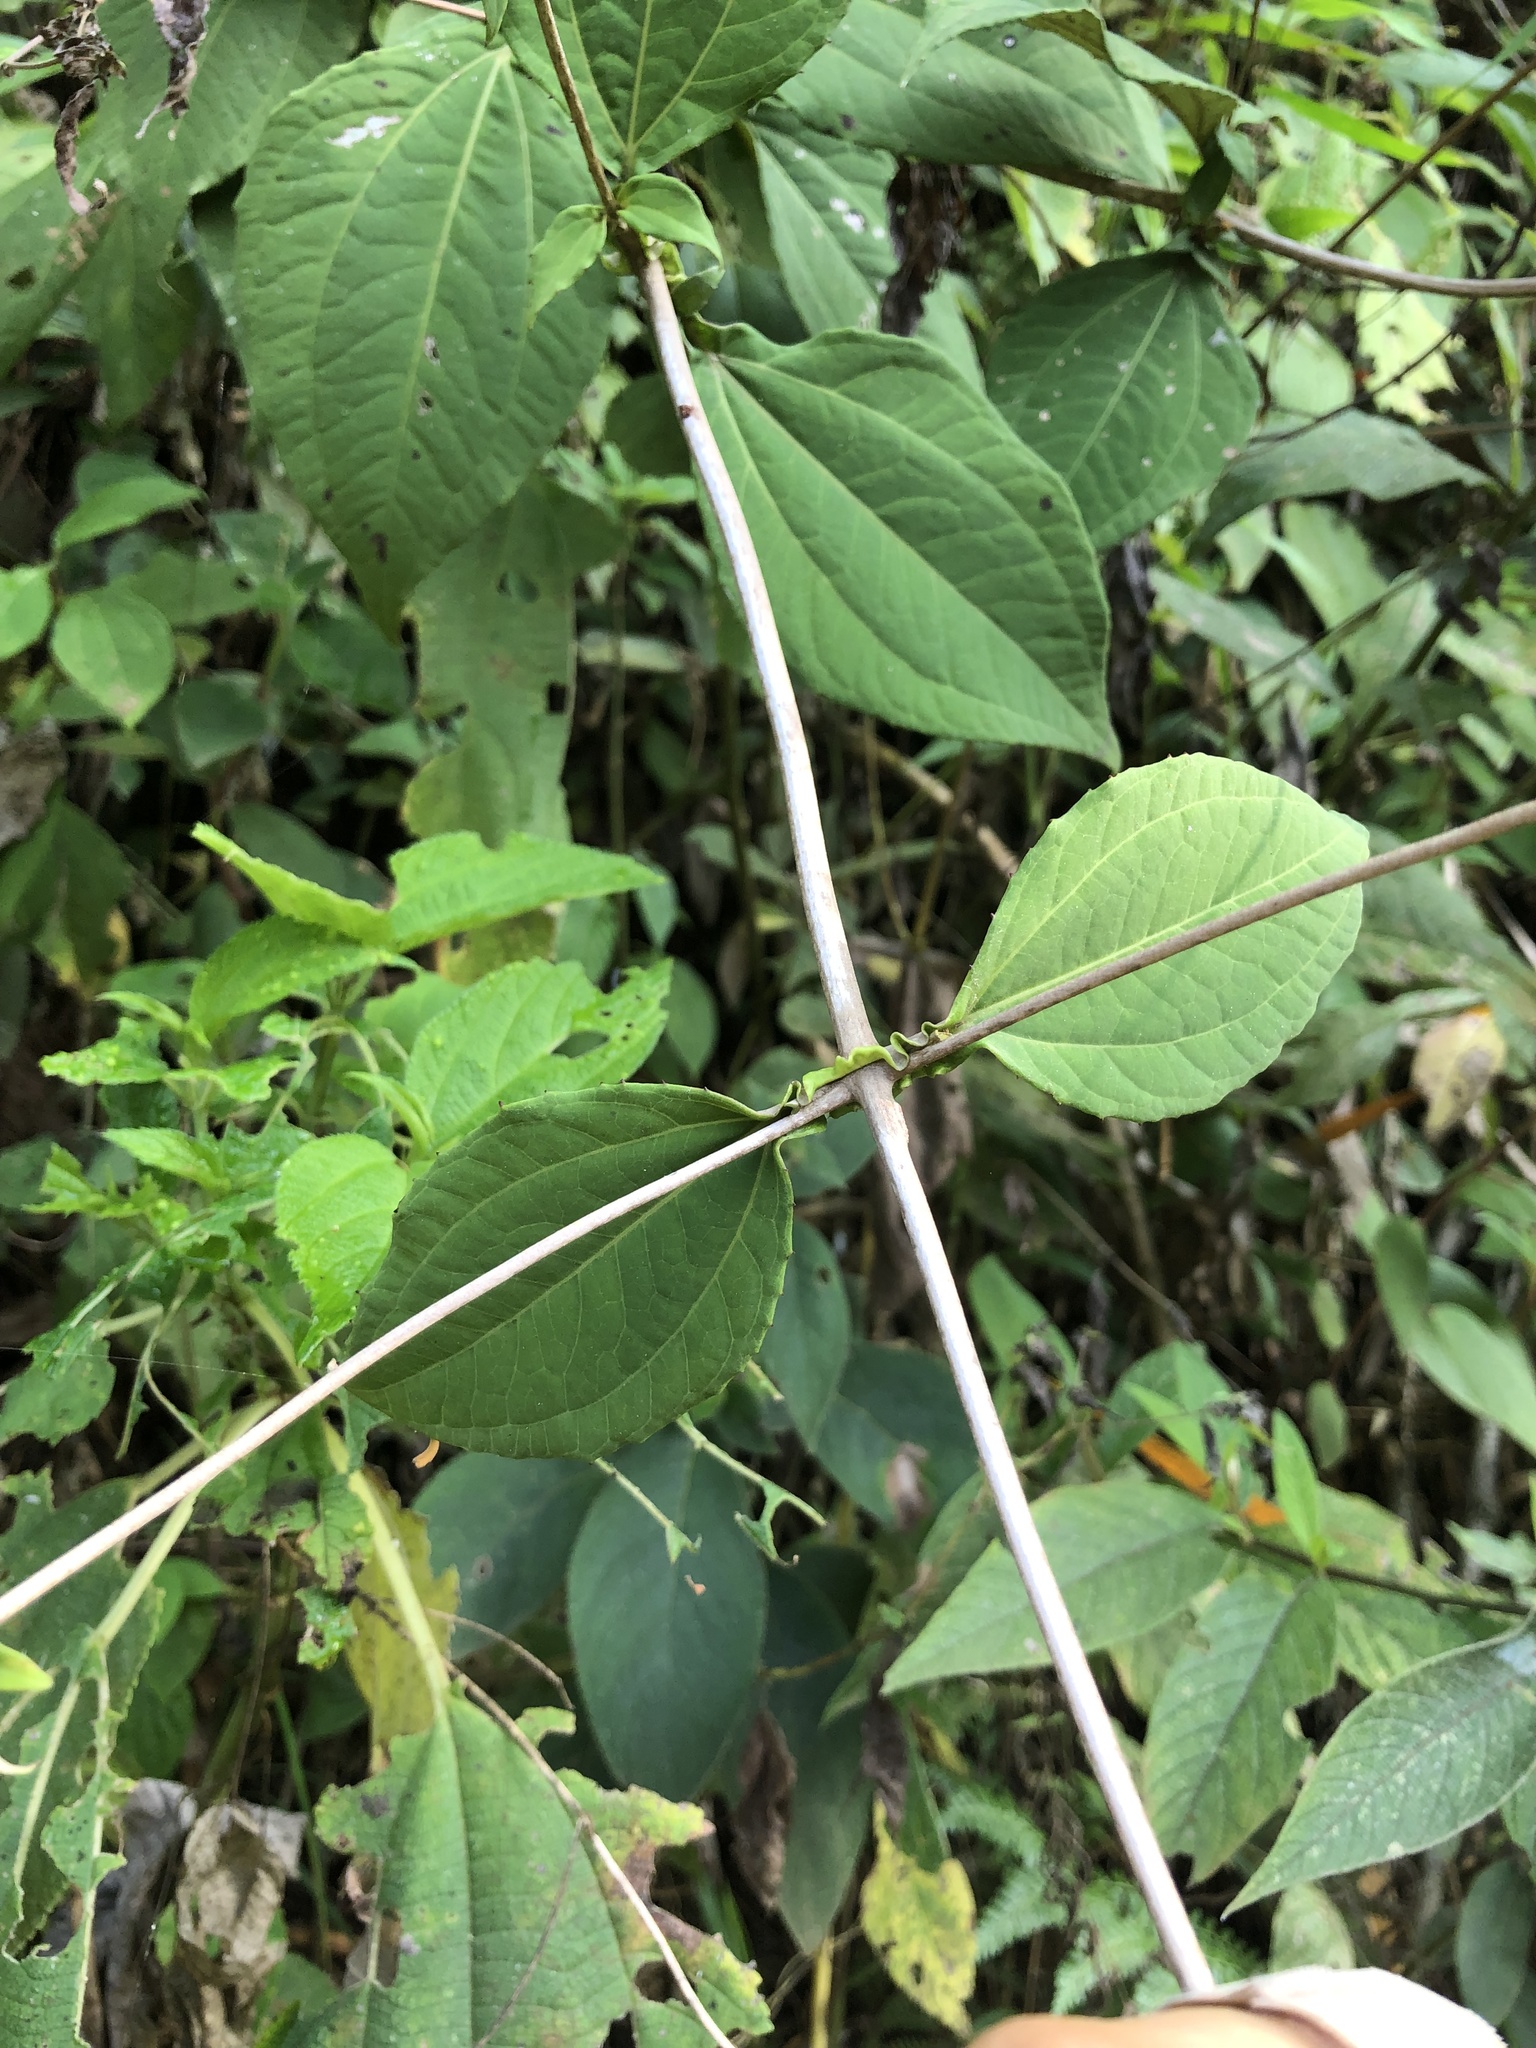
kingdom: Plantae
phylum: Tracheophyta
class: Magnoliopsida
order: Asterales
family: Asteraceae
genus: Liabum
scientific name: Liabum asclepiadeum
